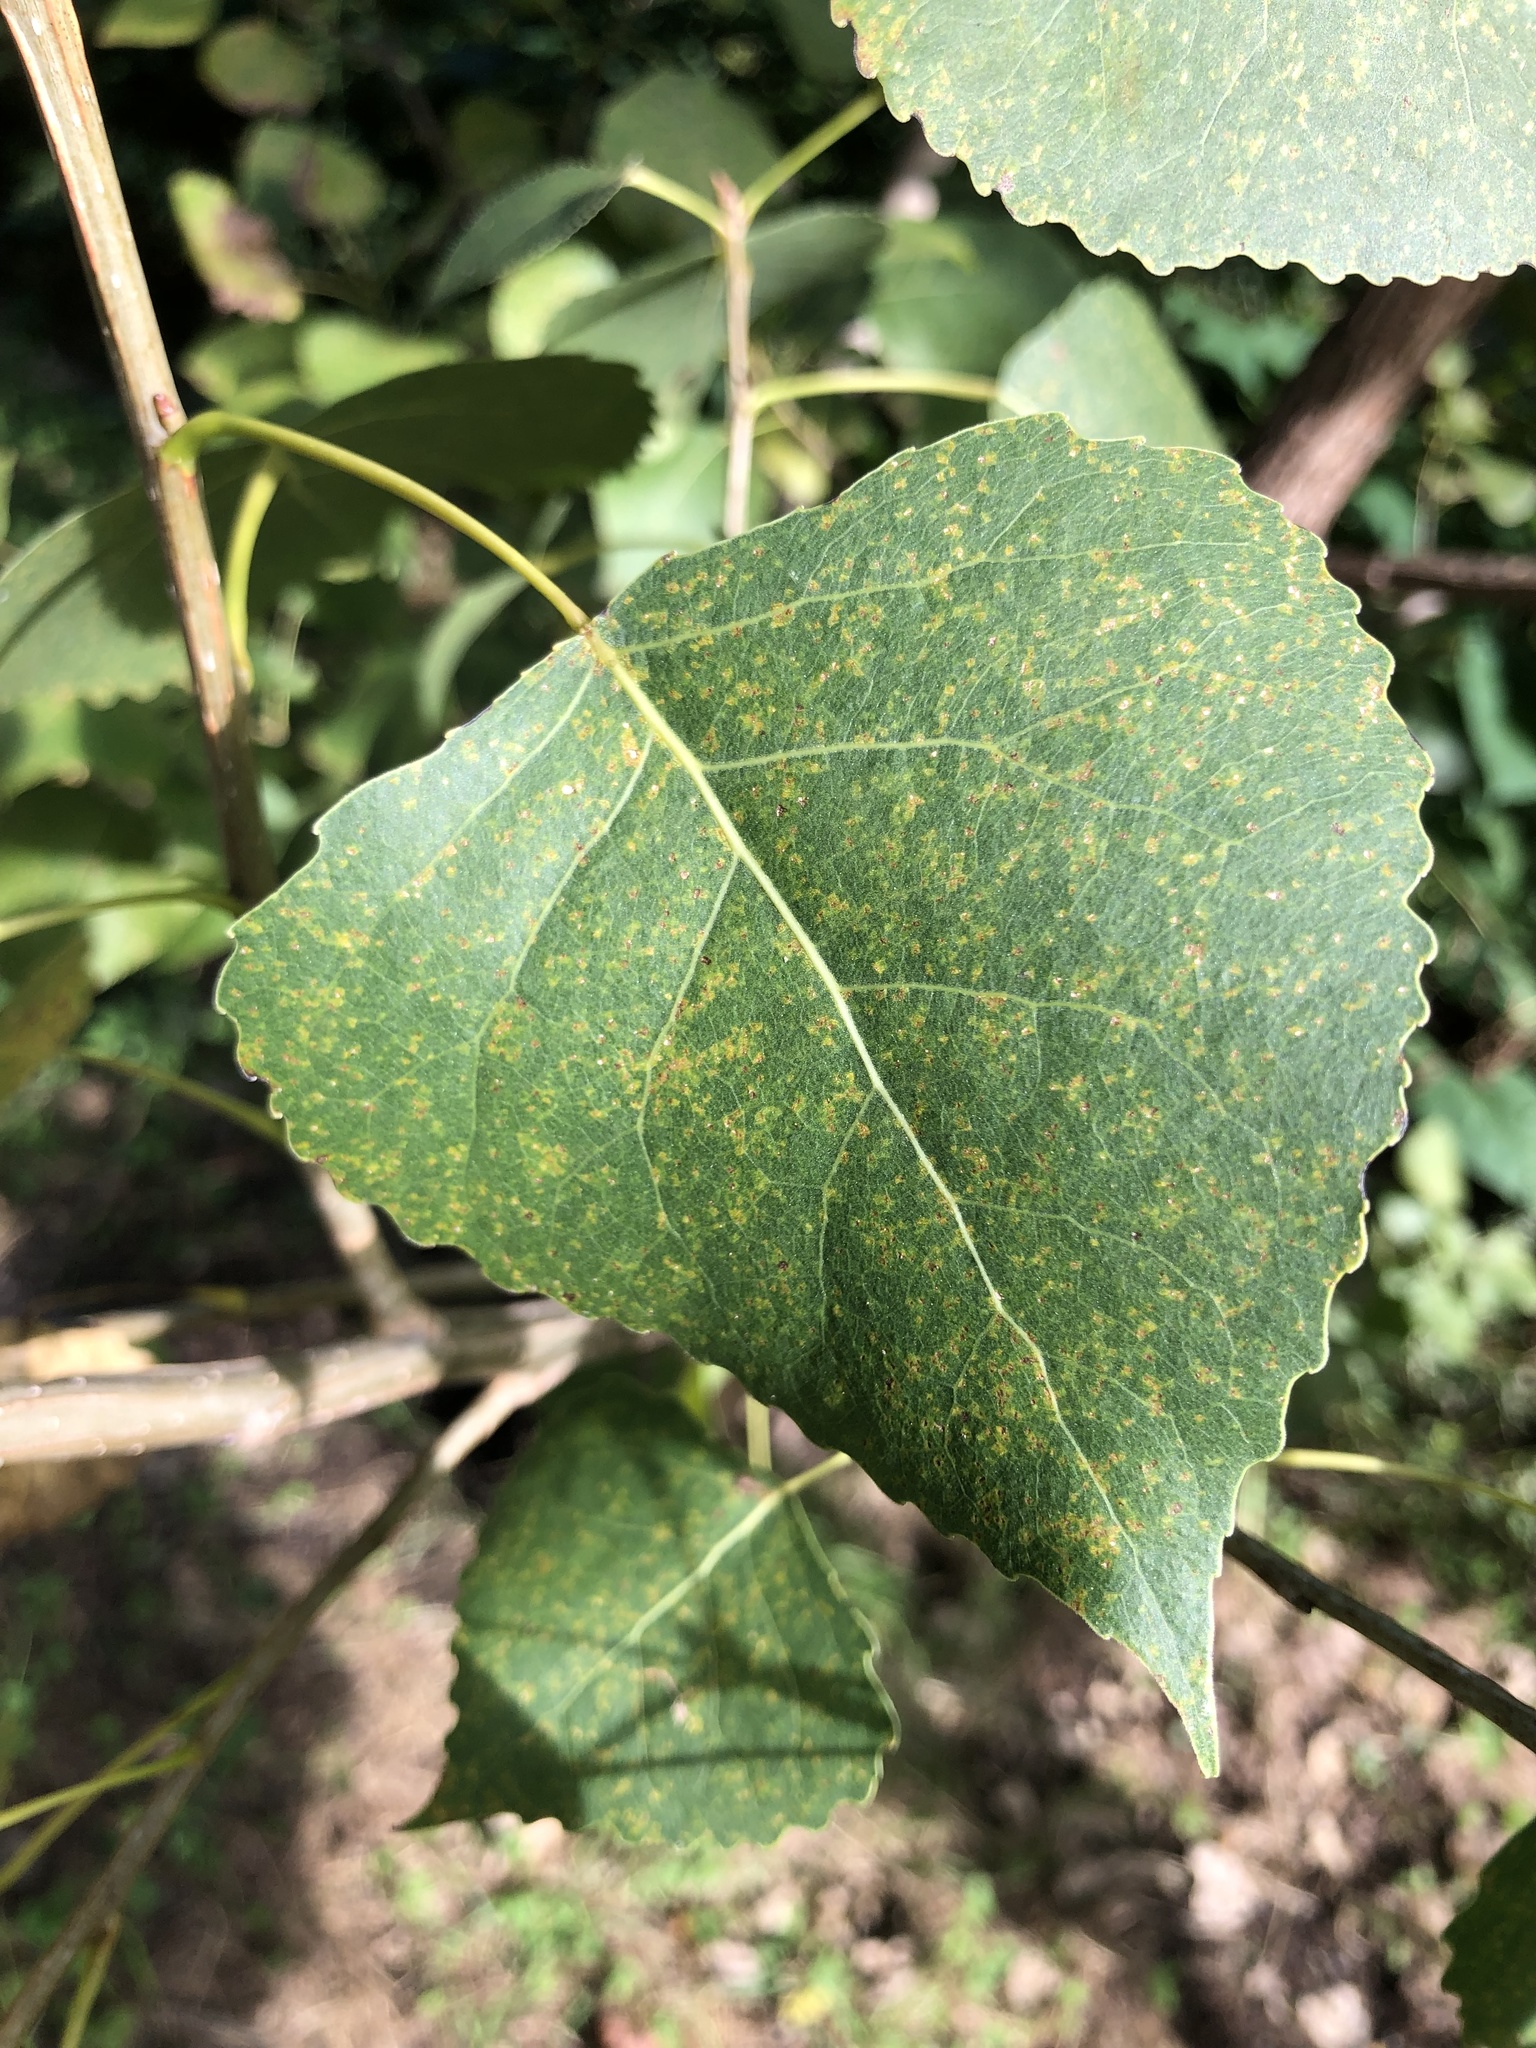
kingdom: Plantae
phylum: Tracheophyta
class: Magnoliopsida
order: Malpighiales
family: Salicaceae
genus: Populus
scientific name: Populus deltoides
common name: Eastern cottonwood
